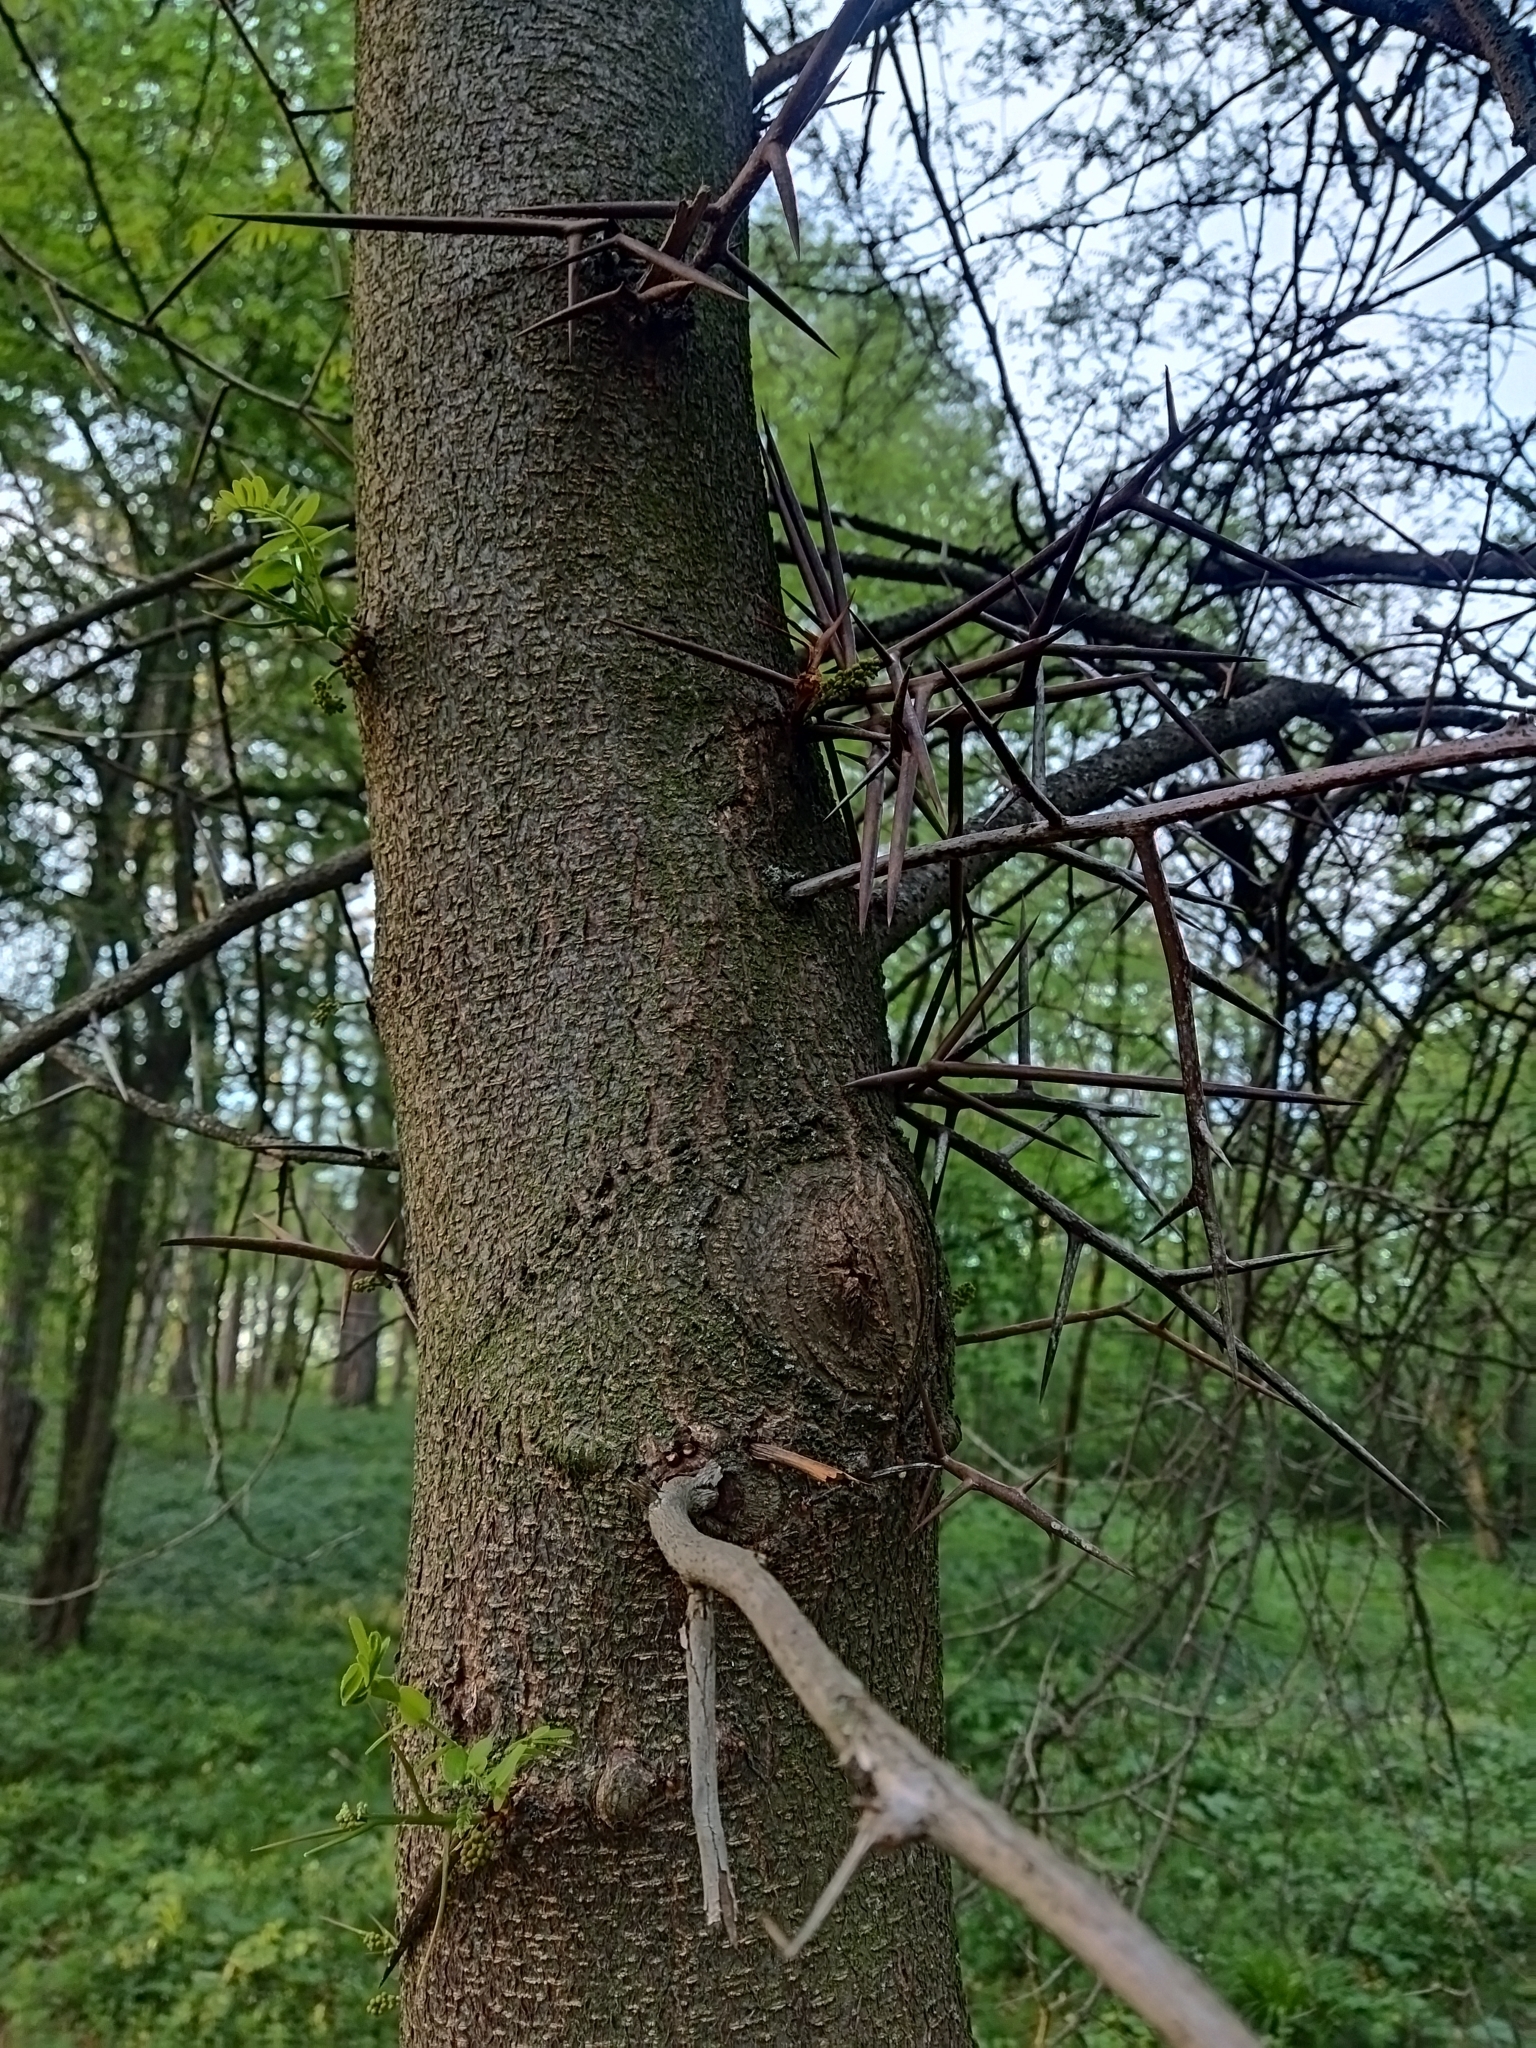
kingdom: Plantae
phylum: Tracheophyta
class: Magnoliopsida
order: Fabales
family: Fabaceae
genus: Gleditsia
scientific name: Gleditsia triacanthos
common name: Common honeylocust
